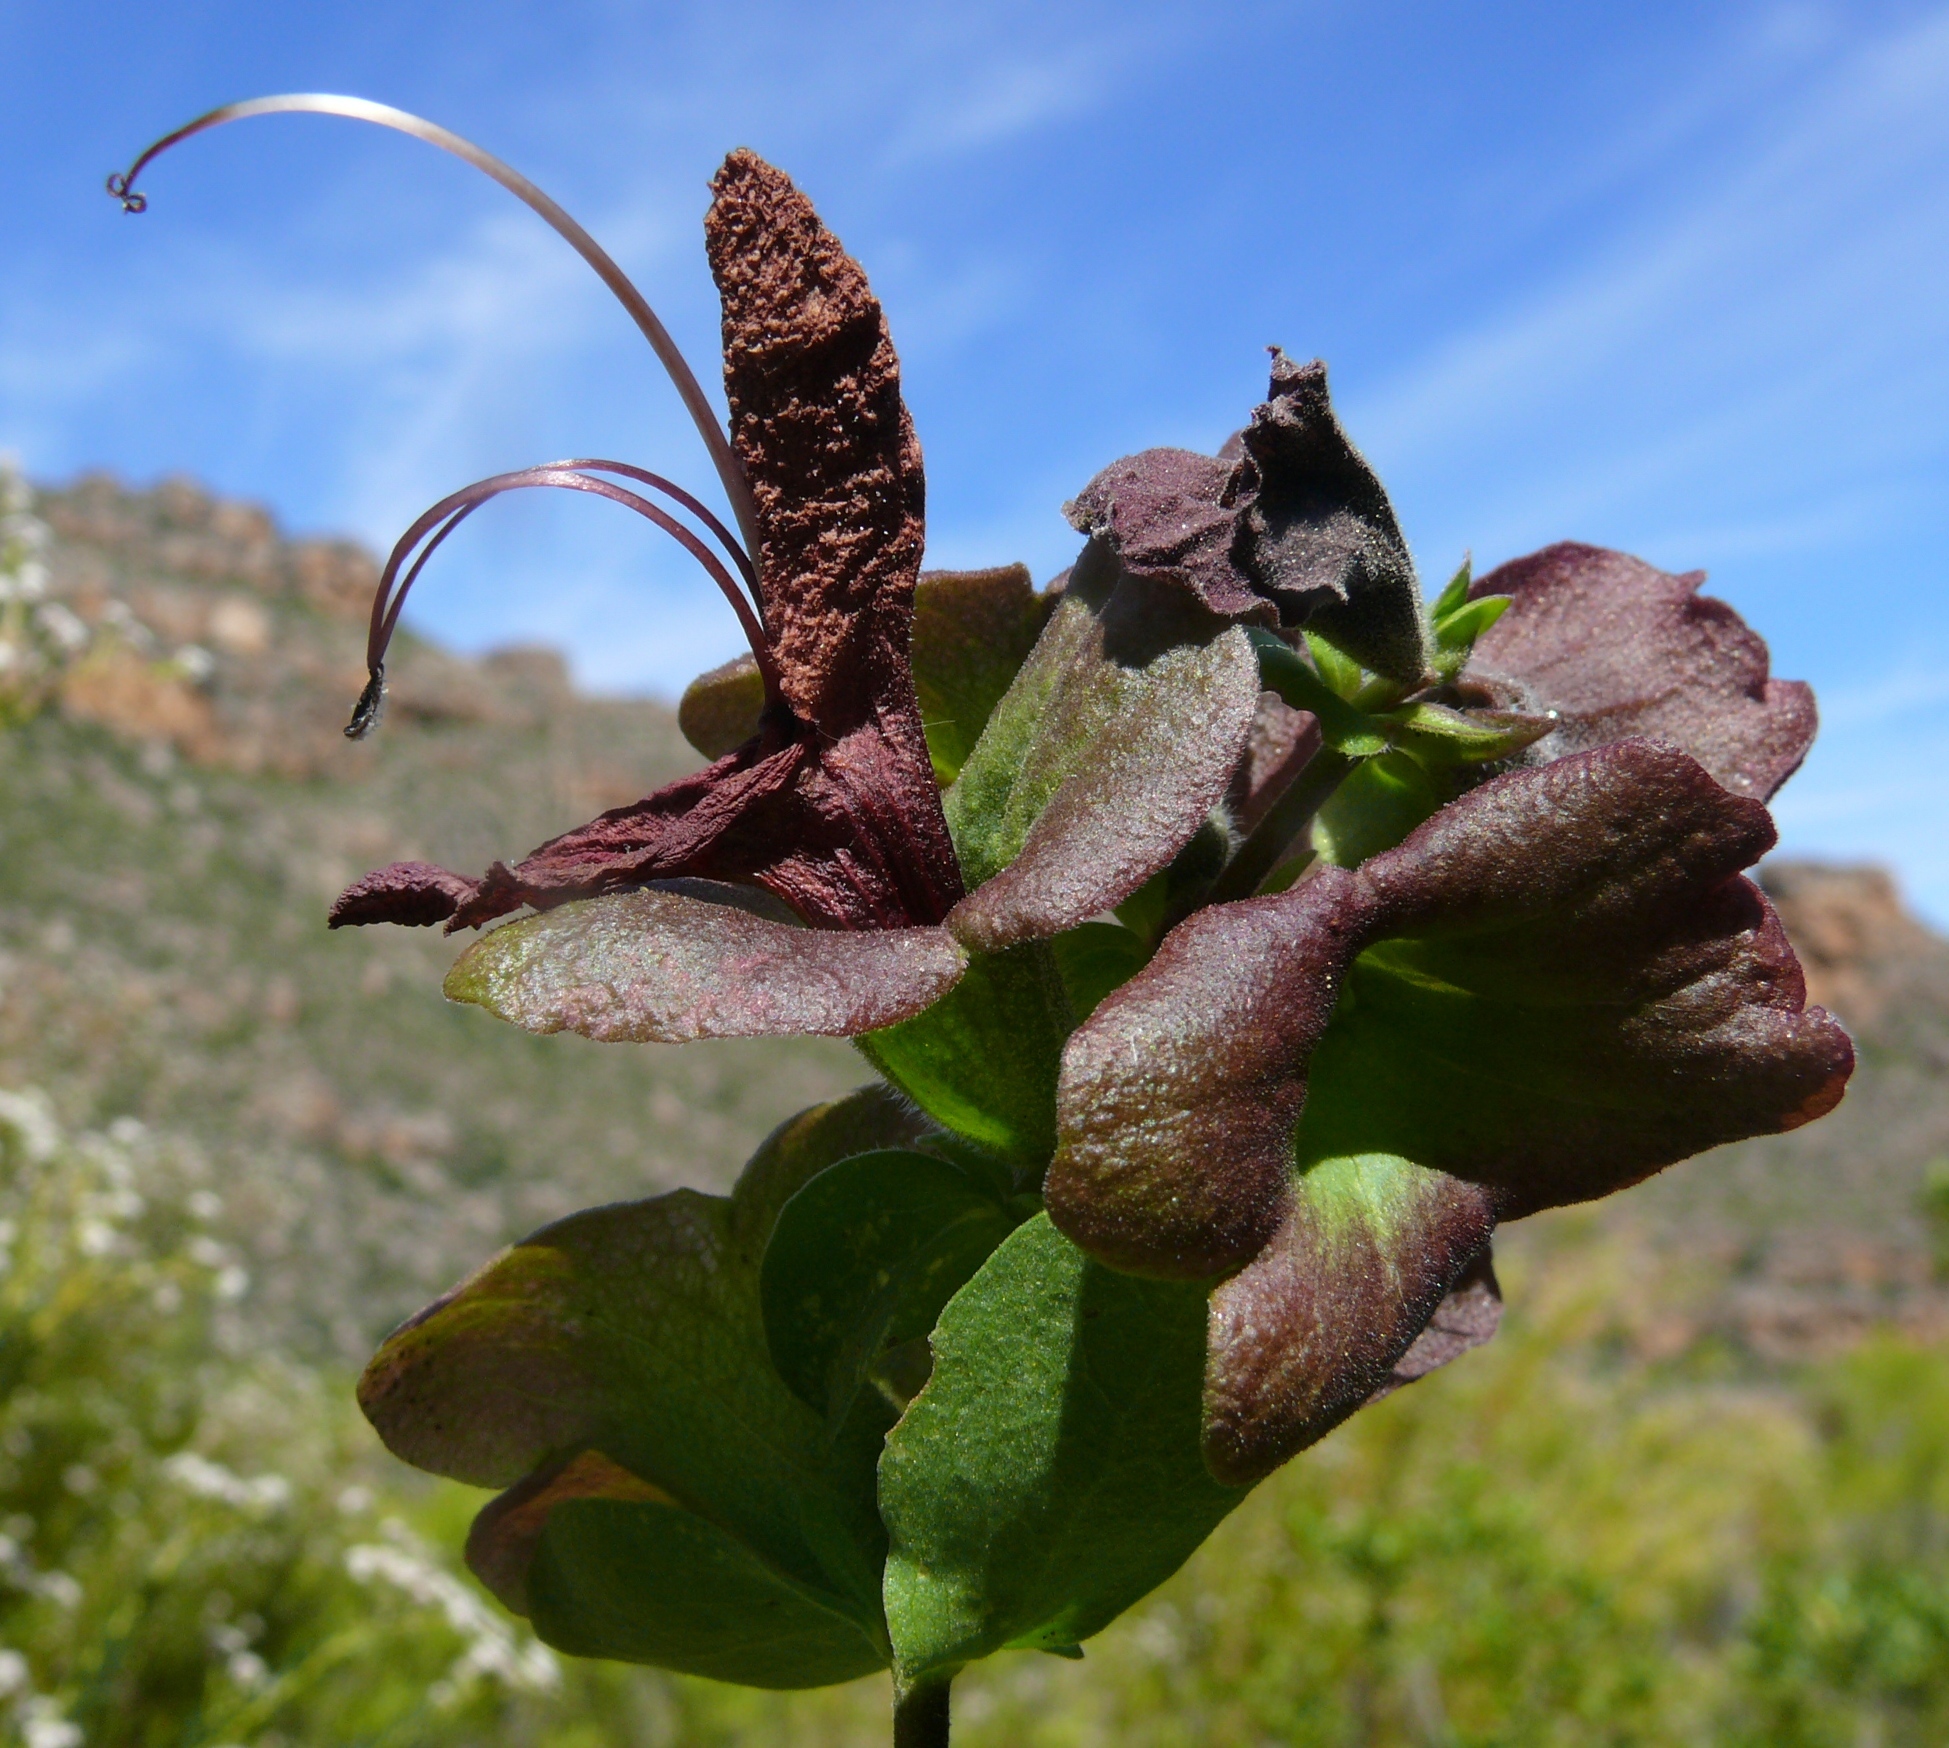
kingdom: Plantae
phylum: Tracheophyta
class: Magnoliopsida
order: Lamiales
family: Lamiaceae
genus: Salvia
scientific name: Salvia lanceolata
